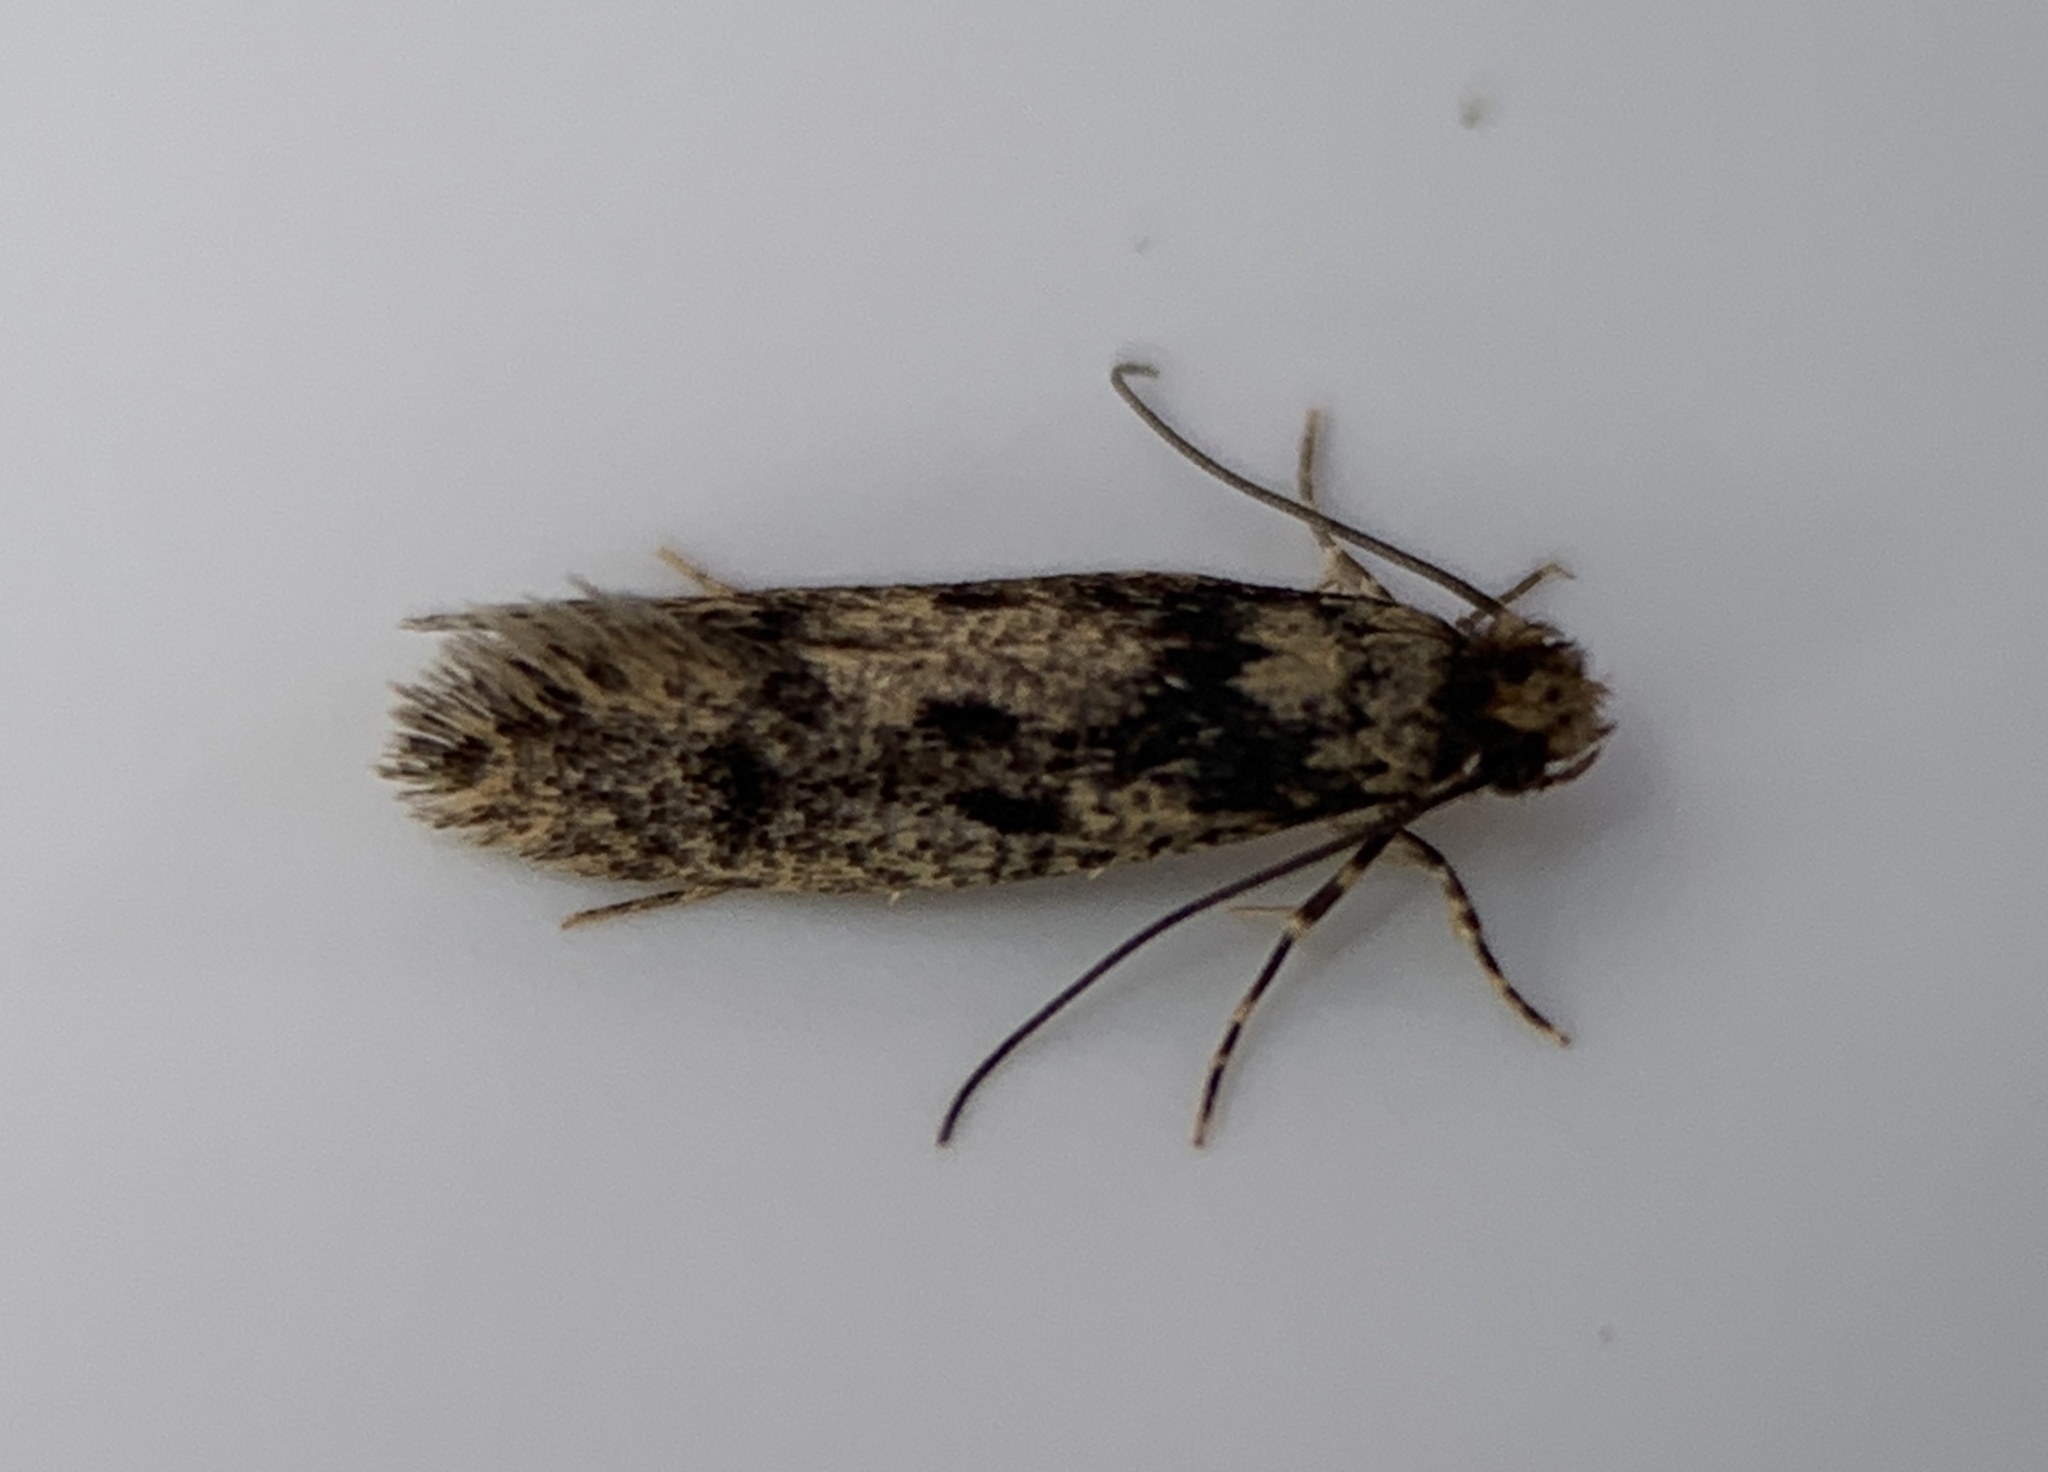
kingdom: Animalia
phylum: Arthropoda
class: Insecta
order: Lepidoptera
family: Tineidae
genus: Niditinea
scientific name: Niditinea fuscella
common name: Brown-dotted clothes moth
